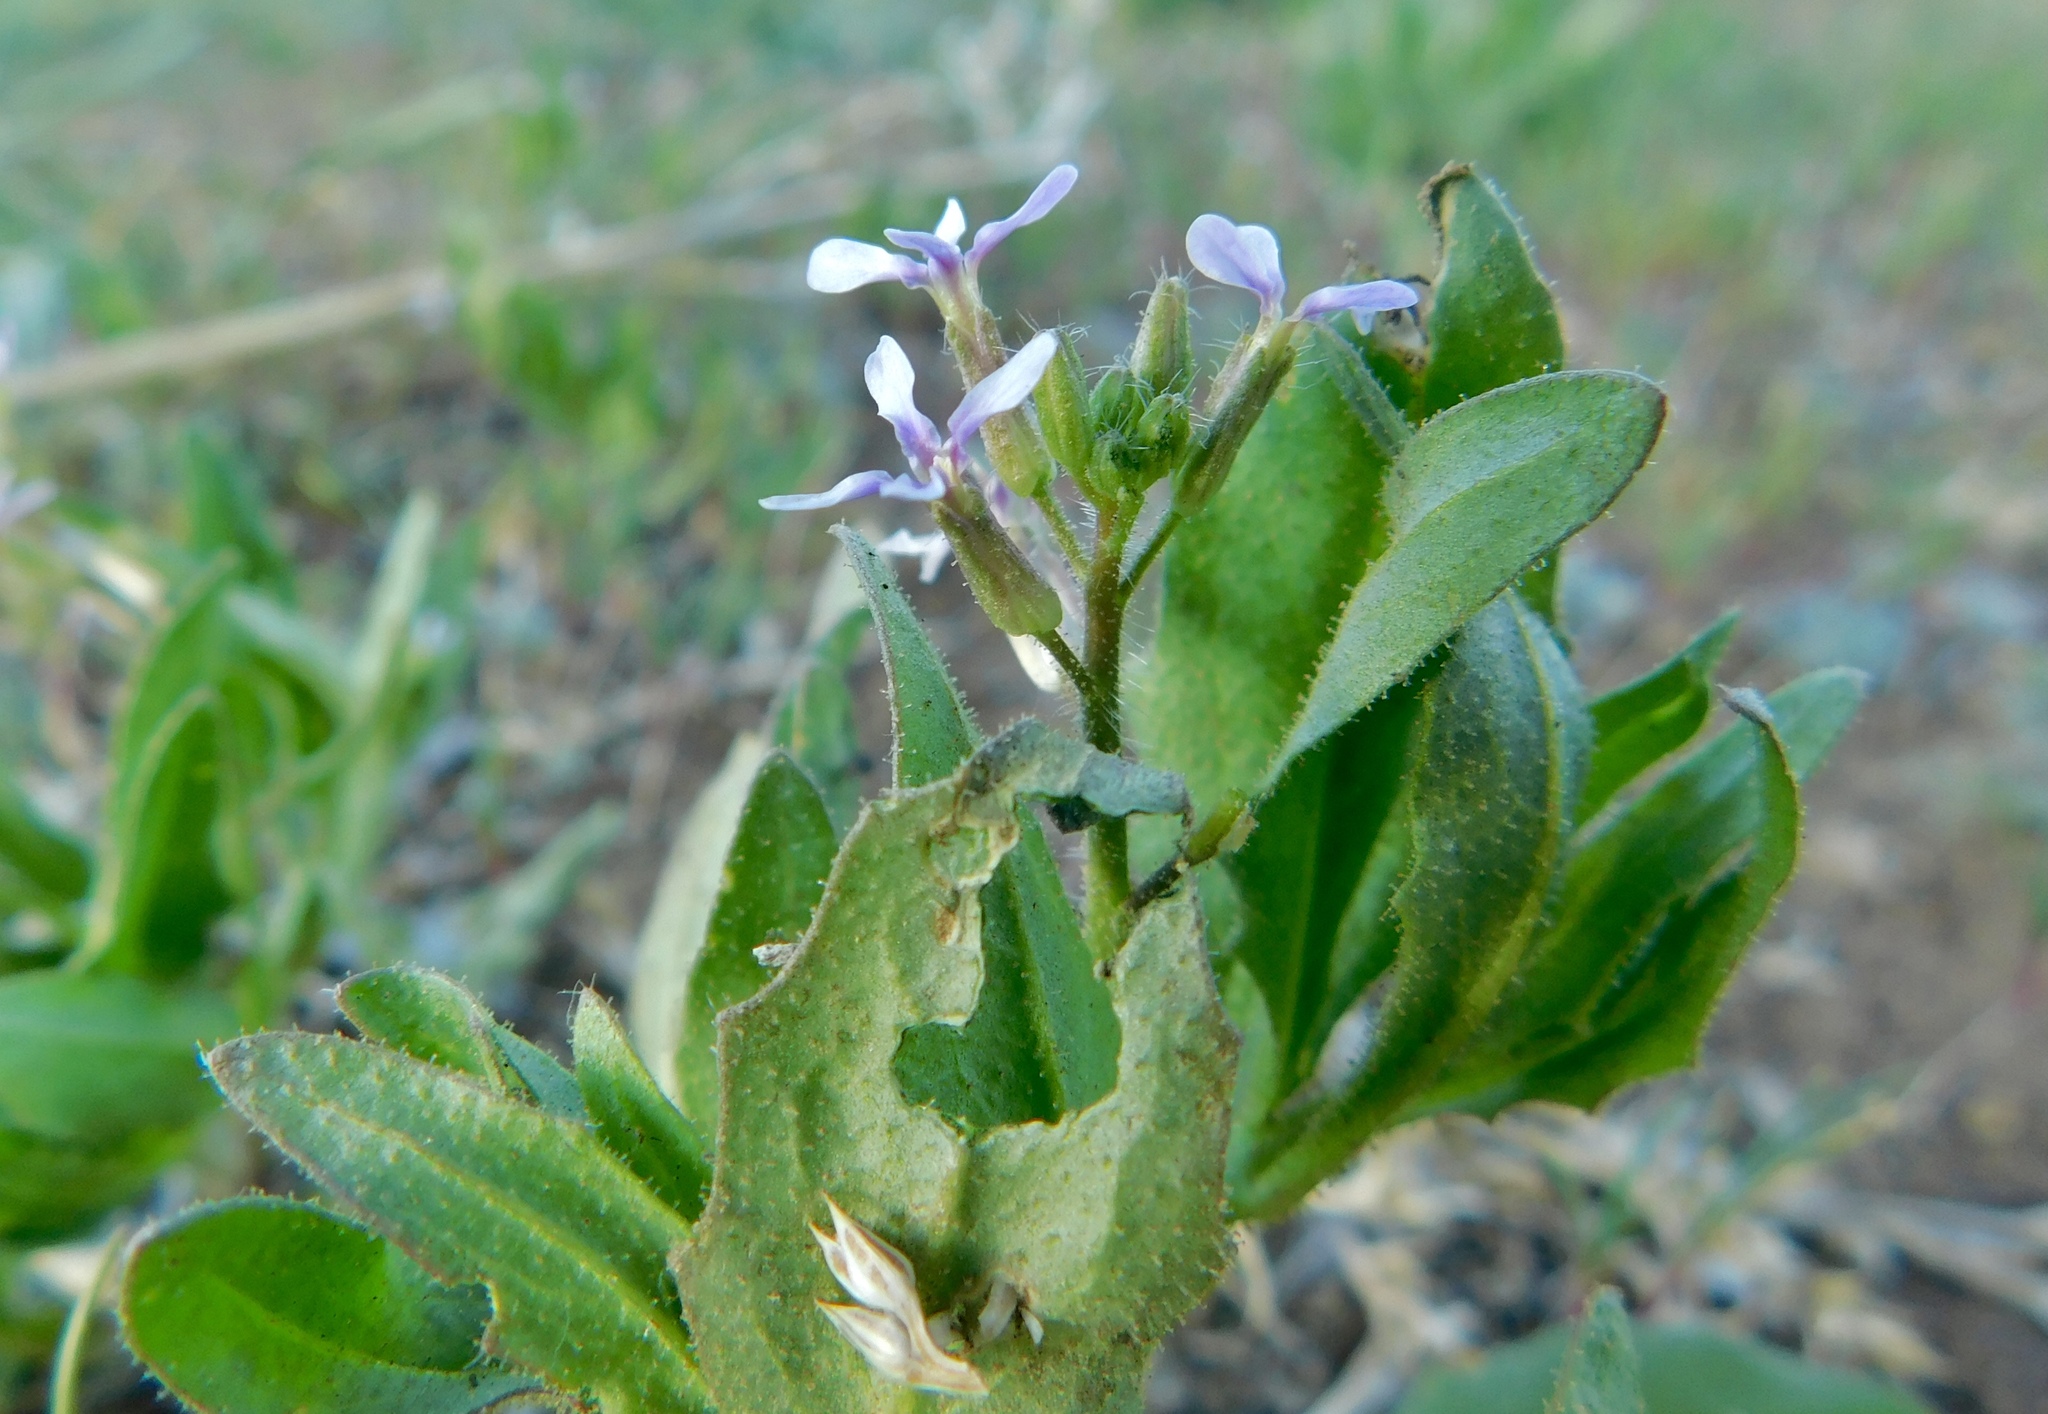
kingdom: Plantae
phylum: Tracheophyta
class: Magnoliopsida
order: Brassicales
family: Brassicaceae
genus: Chorispora
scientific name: Chorispora tenella
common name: Crossflower
